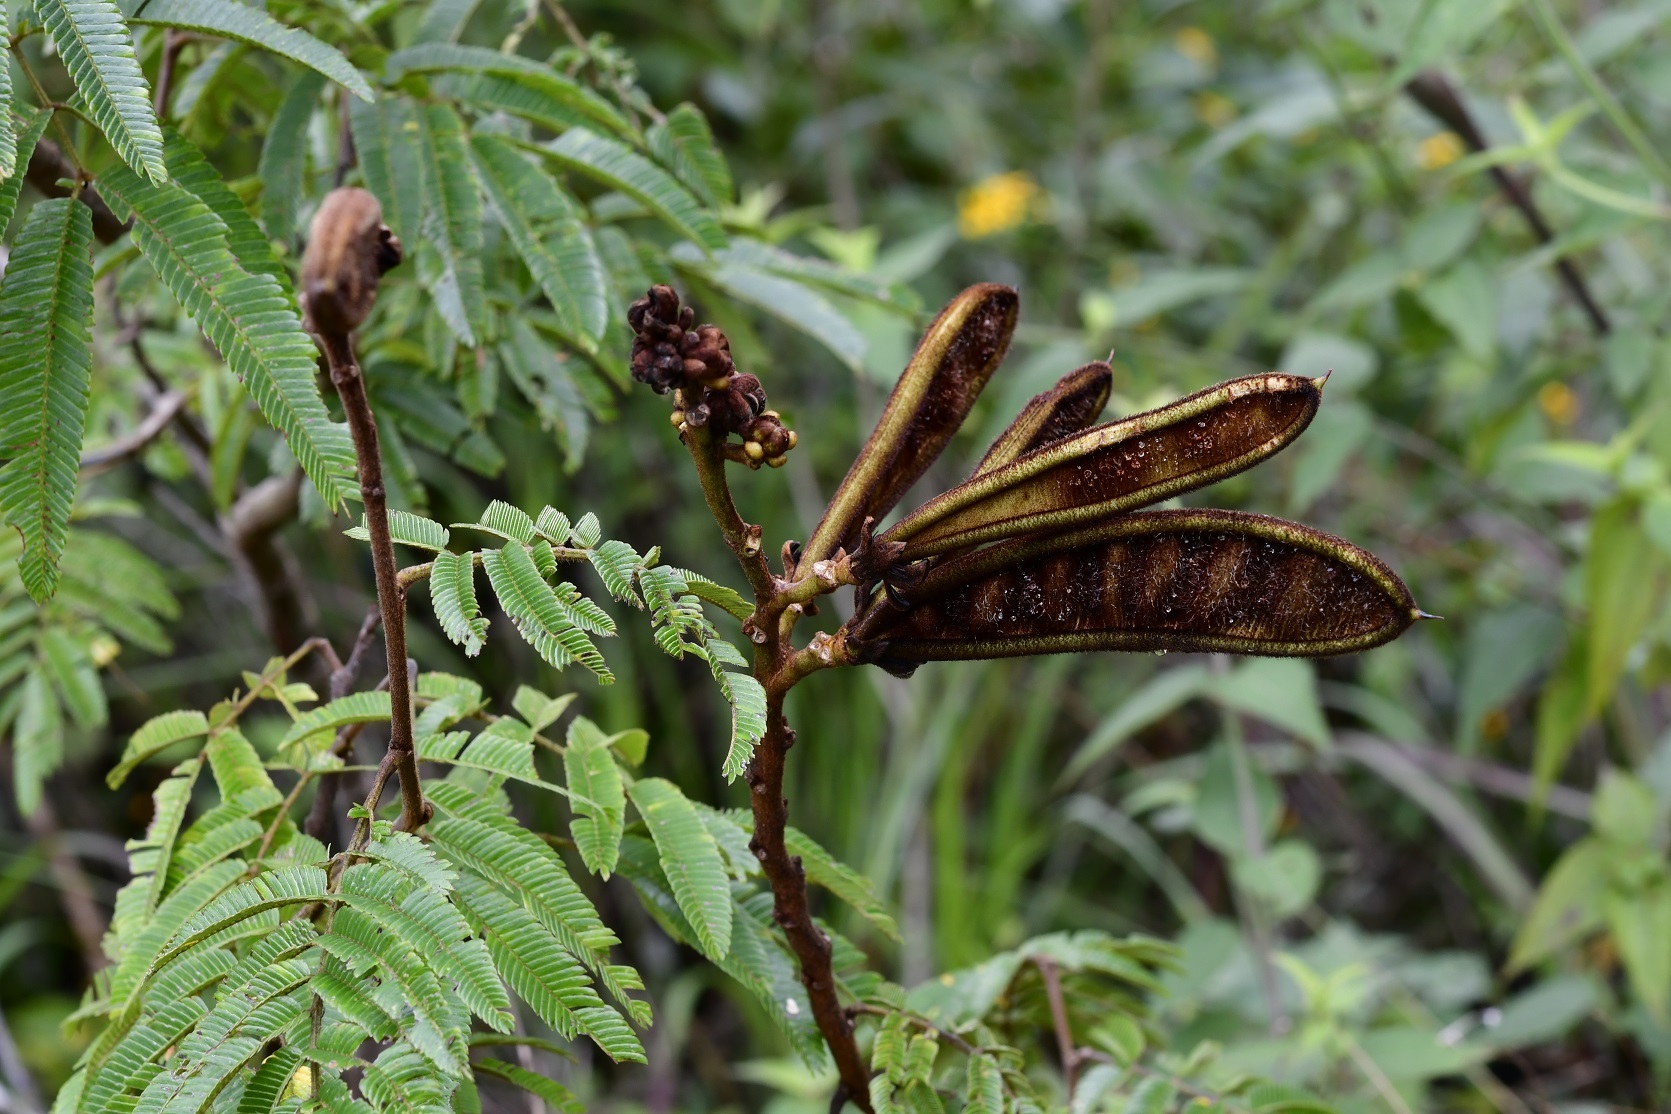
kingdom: Plantae
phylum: Tracheophyta
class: Magnoliopsida
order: Fabales
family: Fabaceae
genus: Calliandra
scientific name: Calliandra houstoniana
